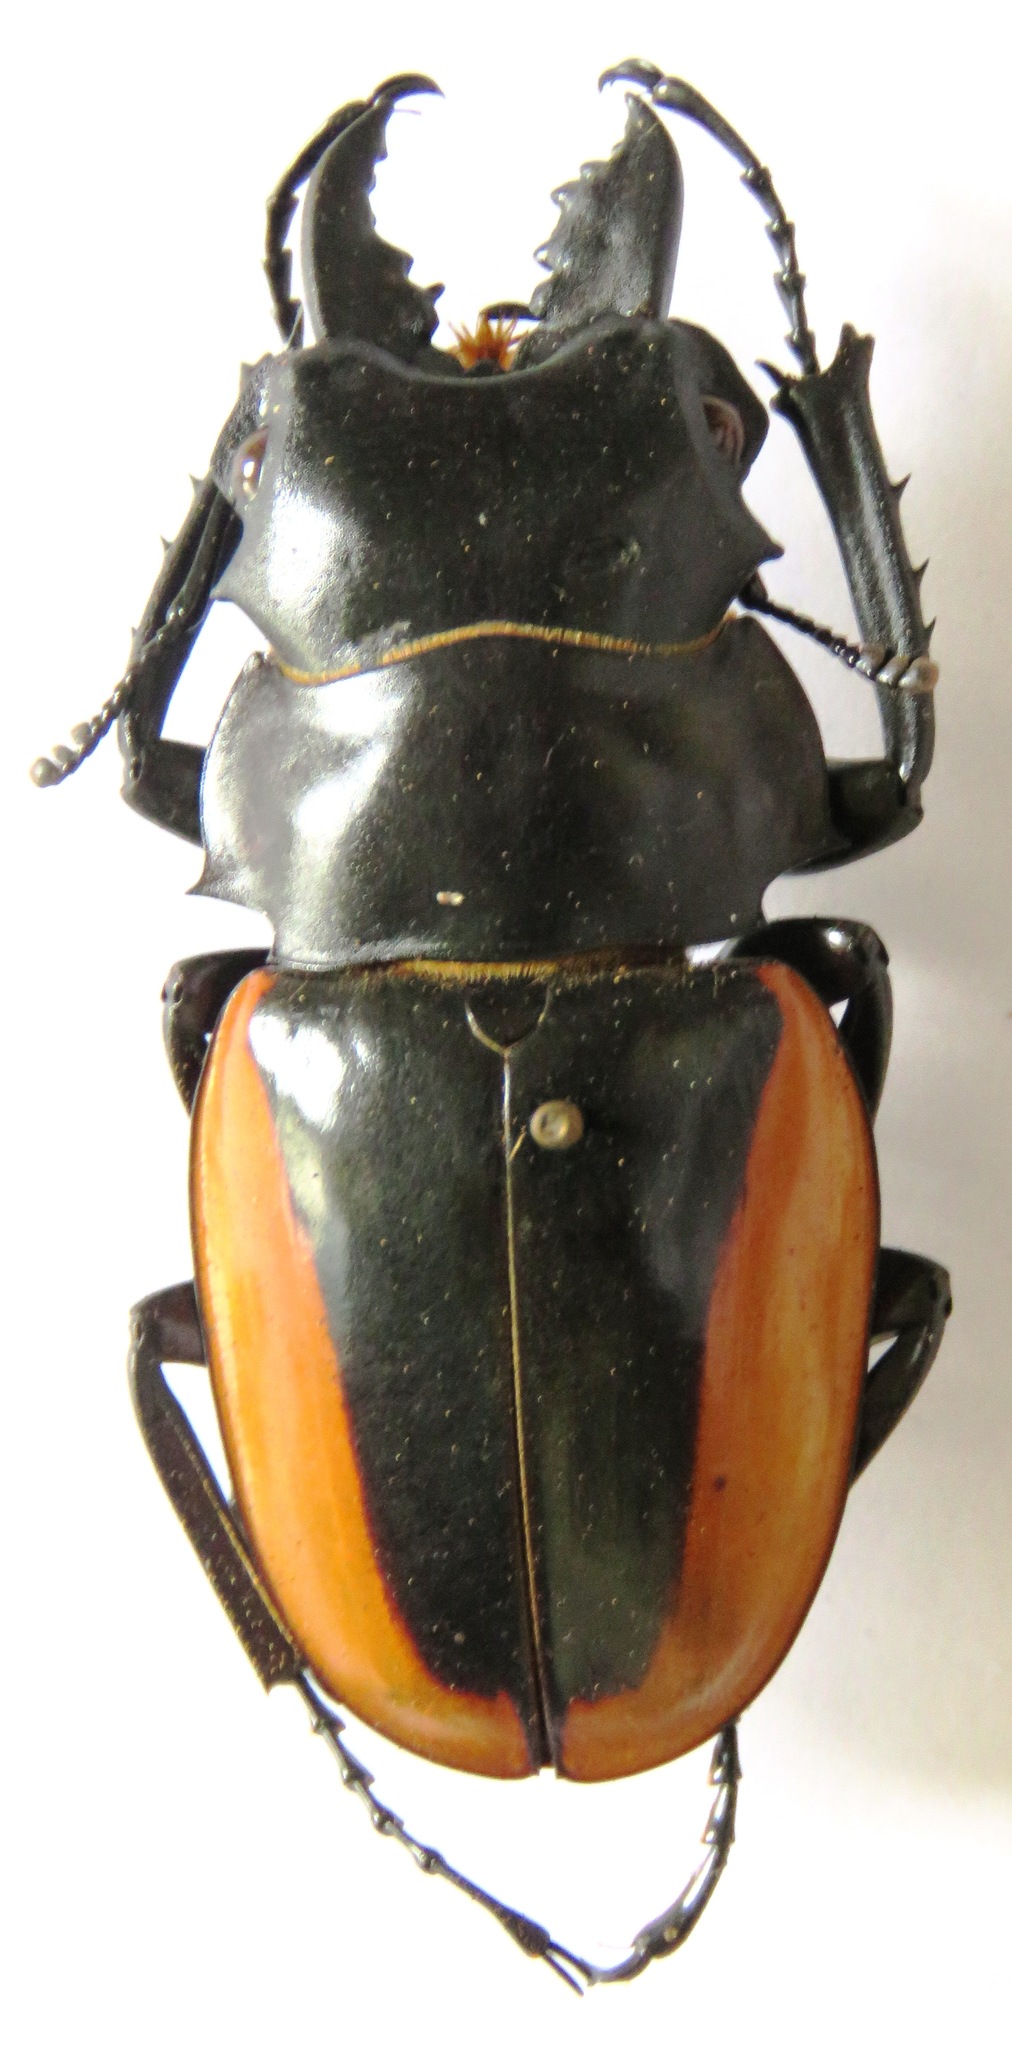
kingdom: Animalia
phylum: Arthropoda
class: Insecta
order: Coleoptera
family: Lucanidae
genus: Odontolabis
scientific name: Odontolabis cuvera
